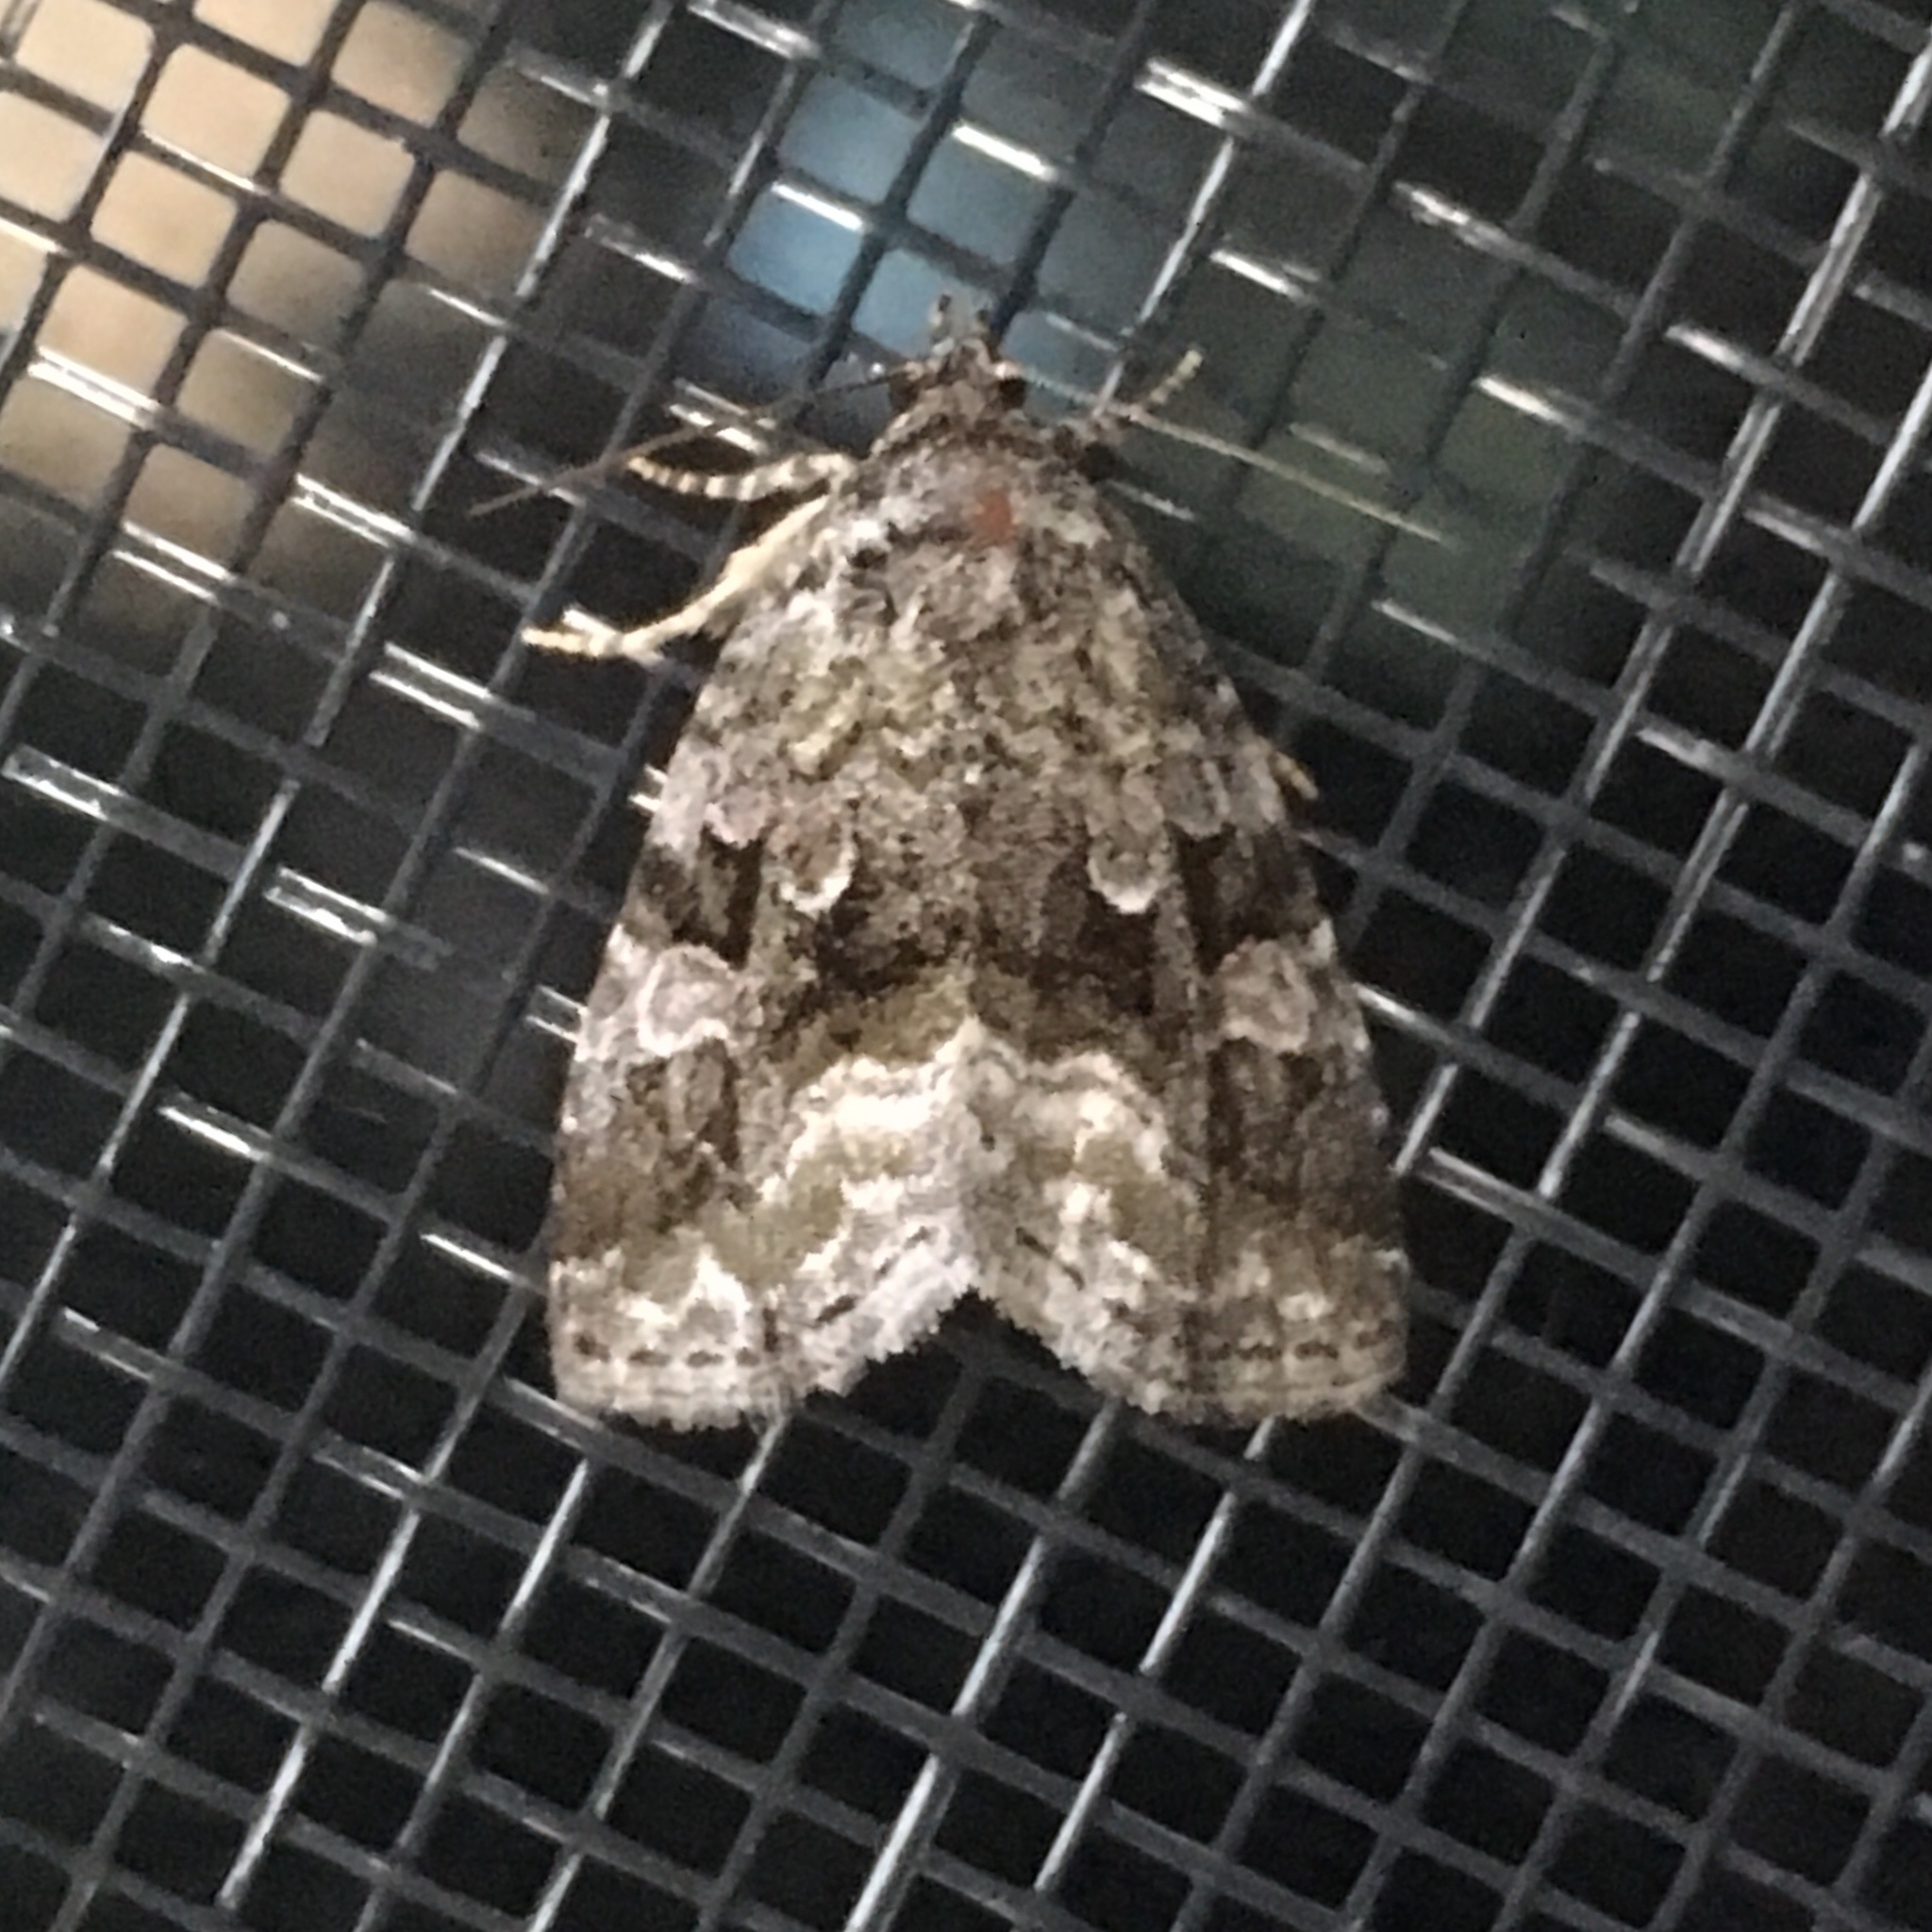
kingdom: Animalia
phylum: Arthropoda
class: Insecta
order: Lepidoptera
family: Noctuidae
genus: Protodeltote
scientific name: Protodeltote muscosula
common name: Large mossy glyph
